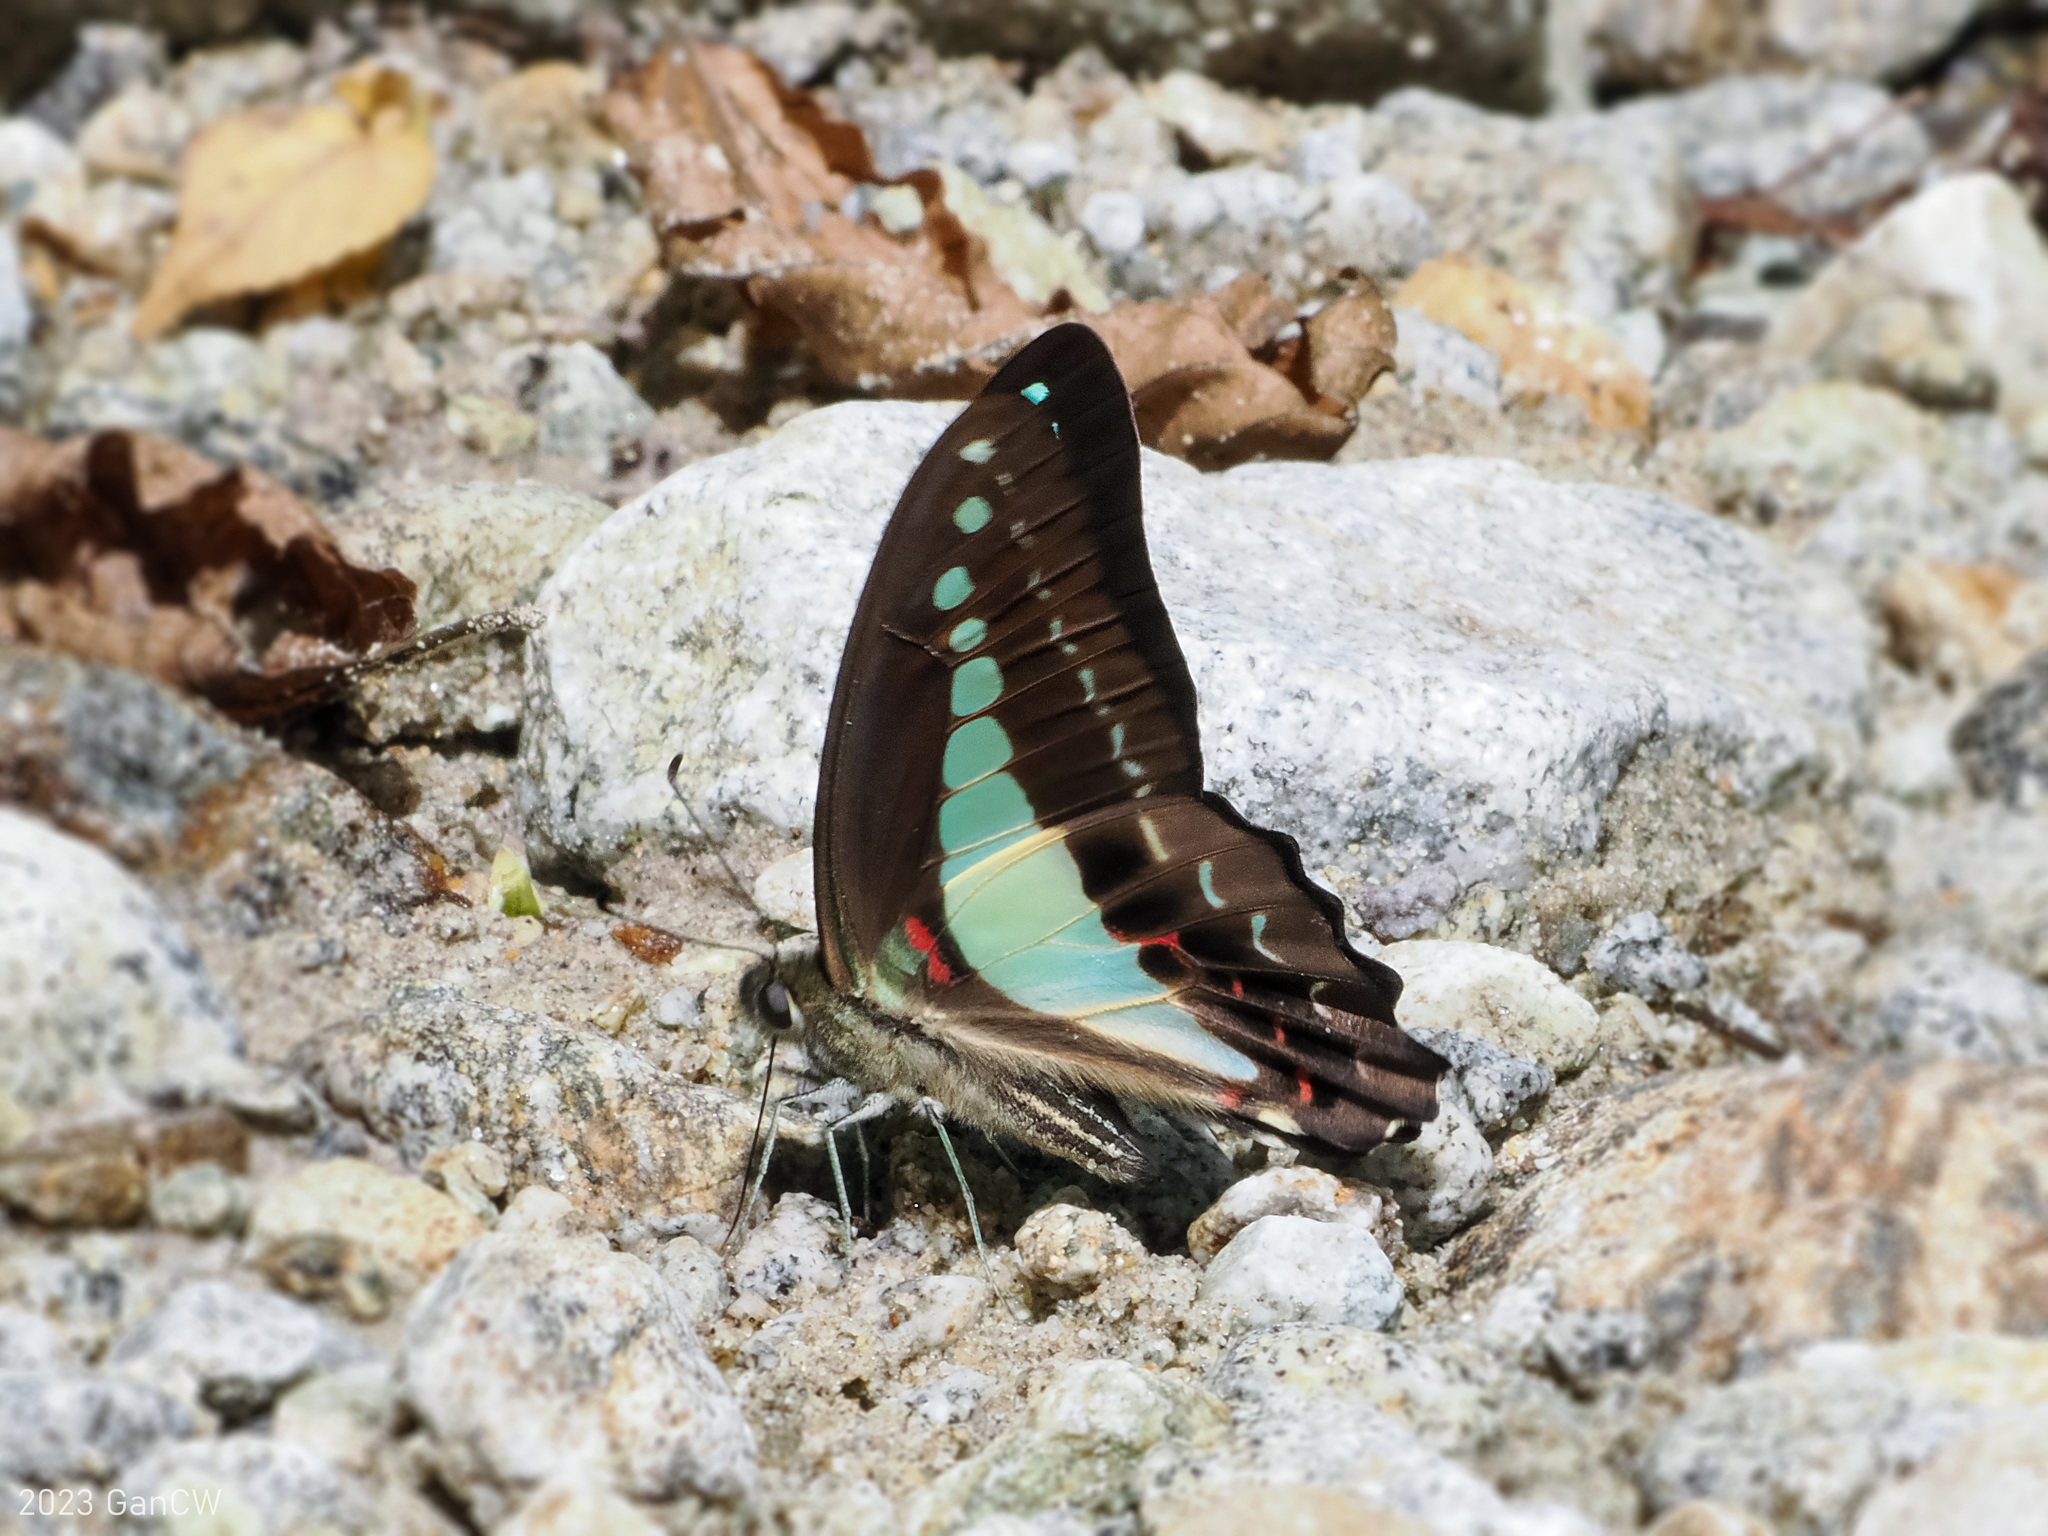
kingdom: Animalia
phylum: Arthropoda
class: Insecta
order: Lepidoptera
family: Papilionidae
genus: Graphium
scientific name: Graphium monticolus
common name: Sulawesi blue triangle
